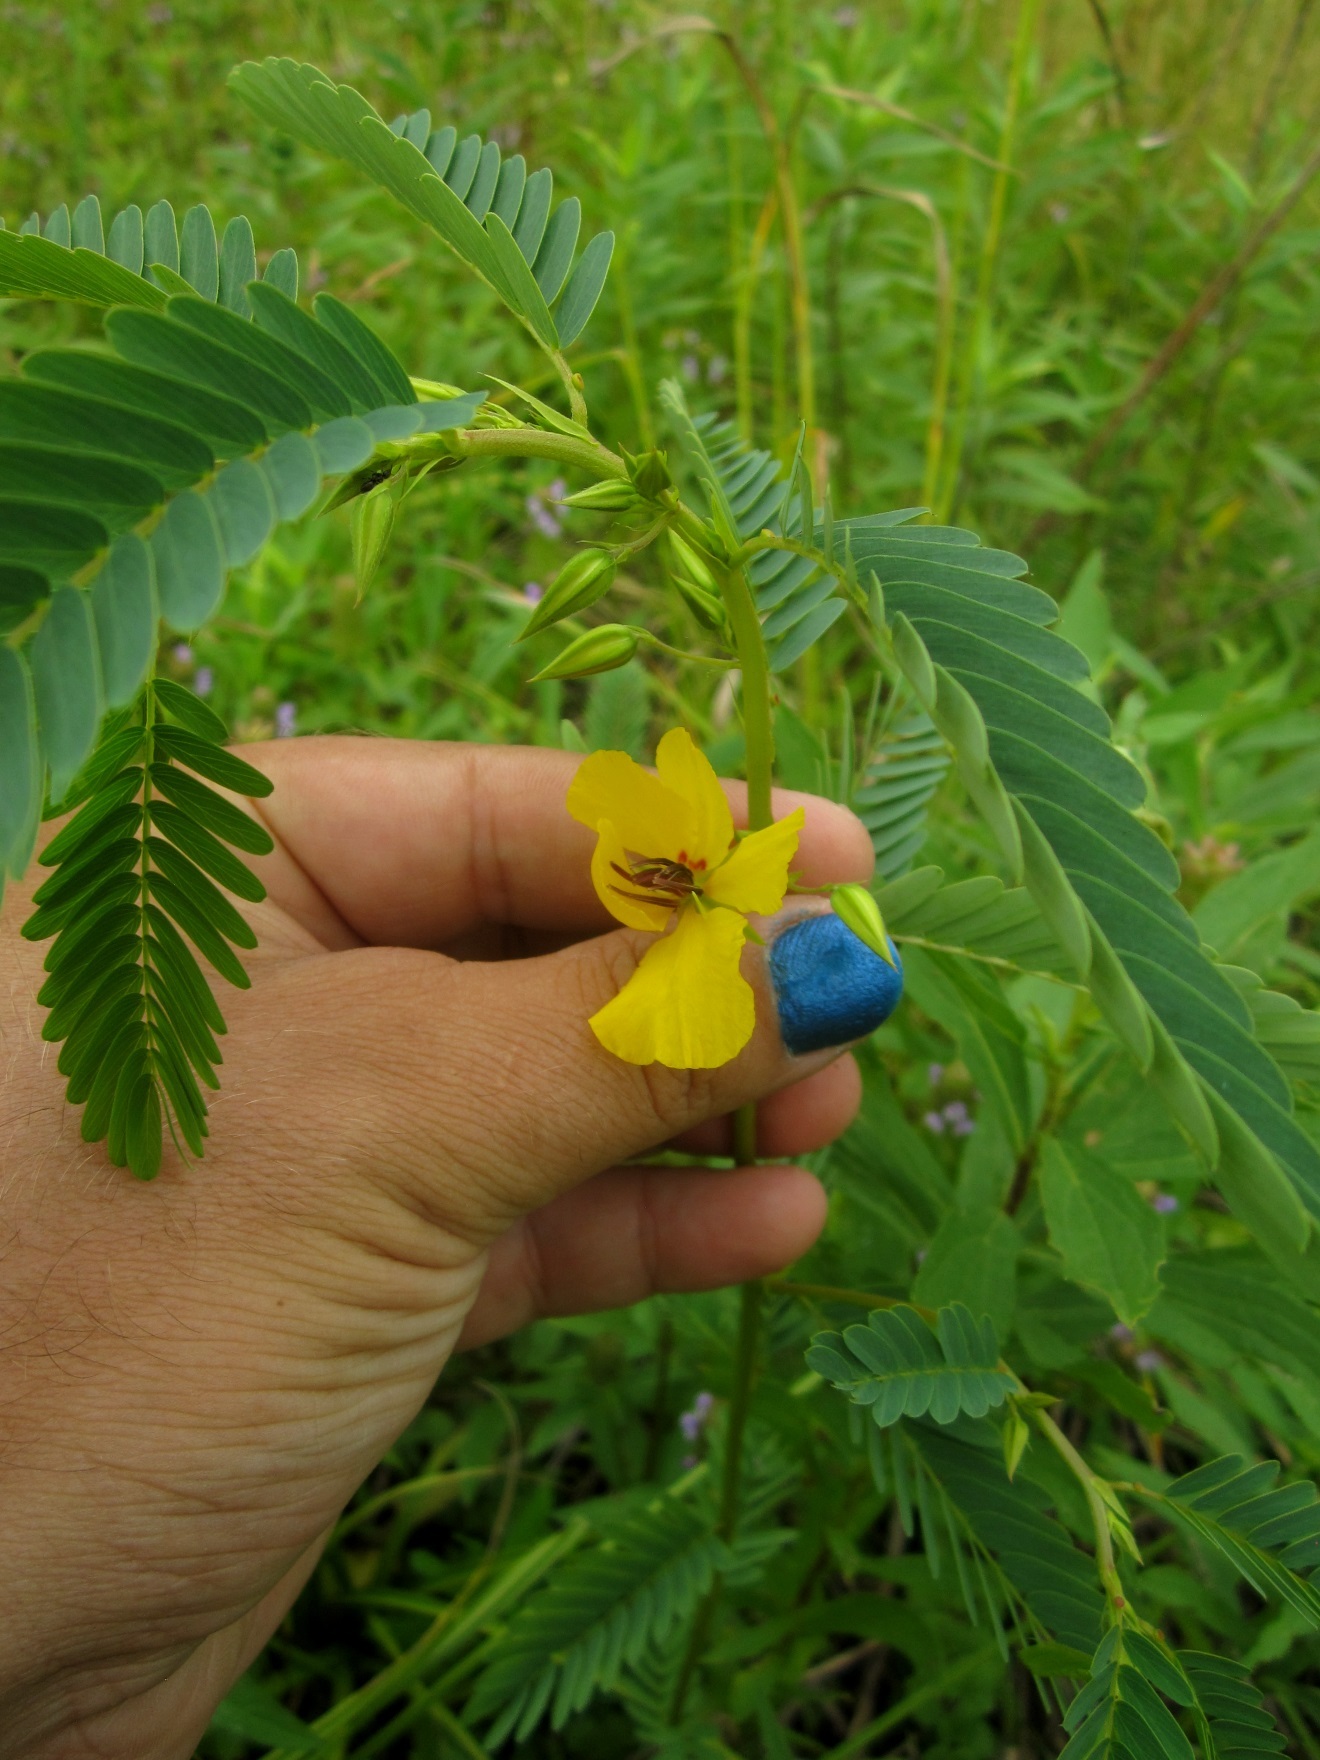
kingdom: Plantae
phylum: Tracheophyta
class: Magnoliopsida
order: Fabales
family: Fabaceae
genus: Chamaecrista
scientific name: Chamaecrista fasciculata
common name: Golden cassia
